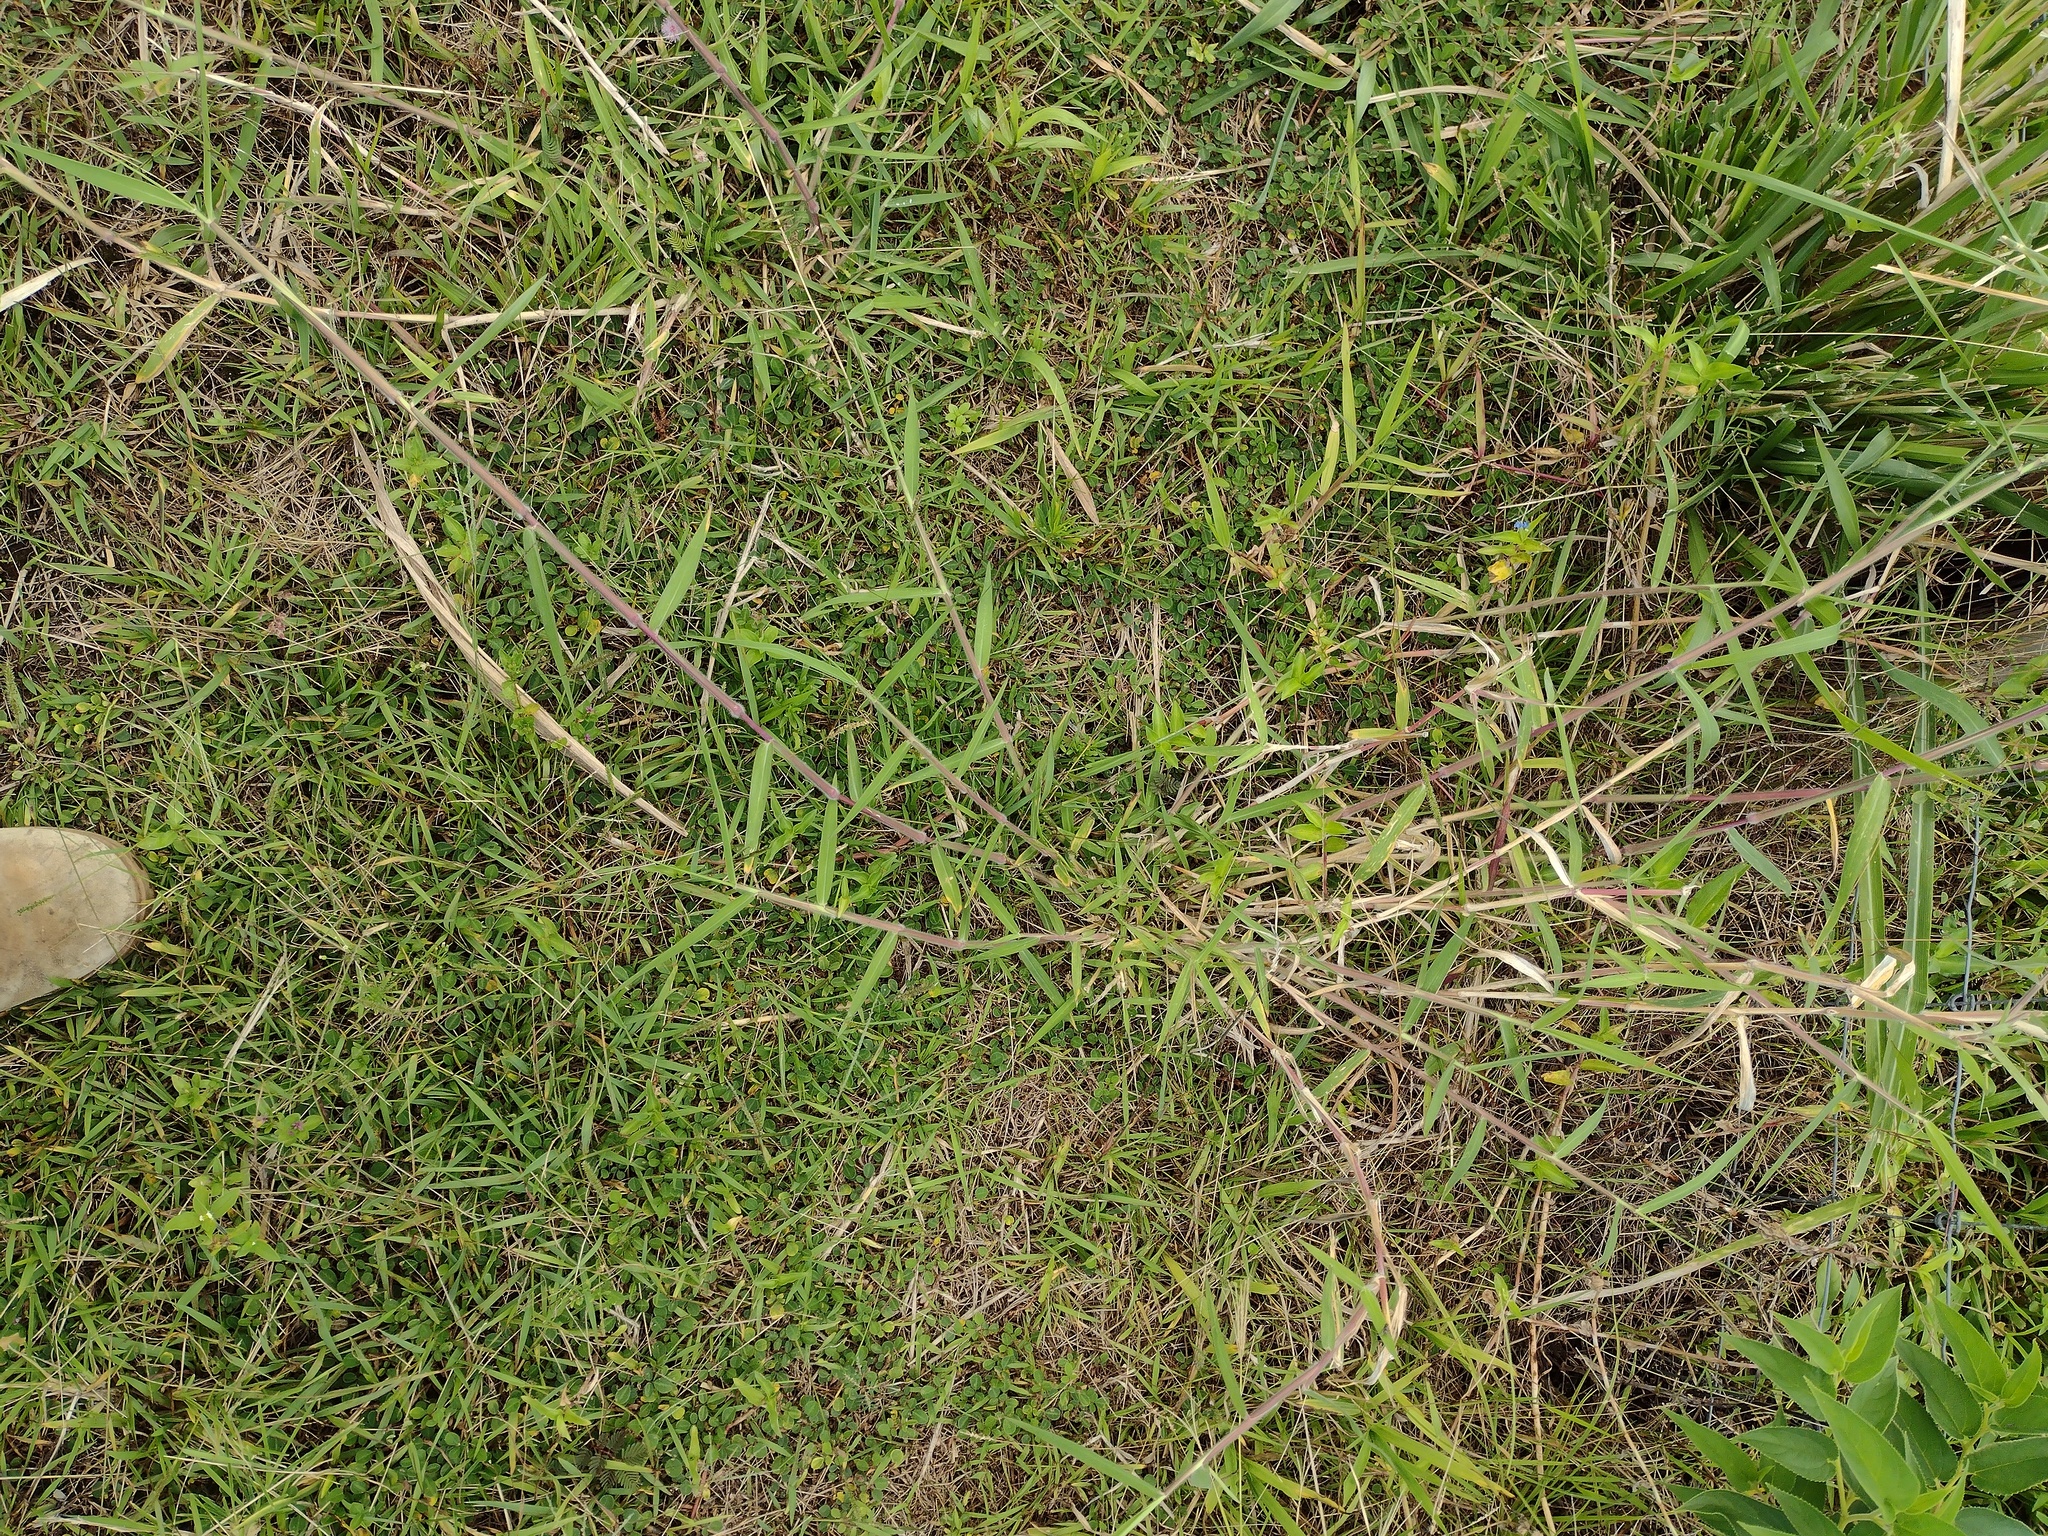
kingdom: Plantae
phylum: Tracheophyta
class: Liliopsida
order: Poales
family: Poaceae
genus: Urochloa
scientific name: Urochloa mutica
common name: Para grass
